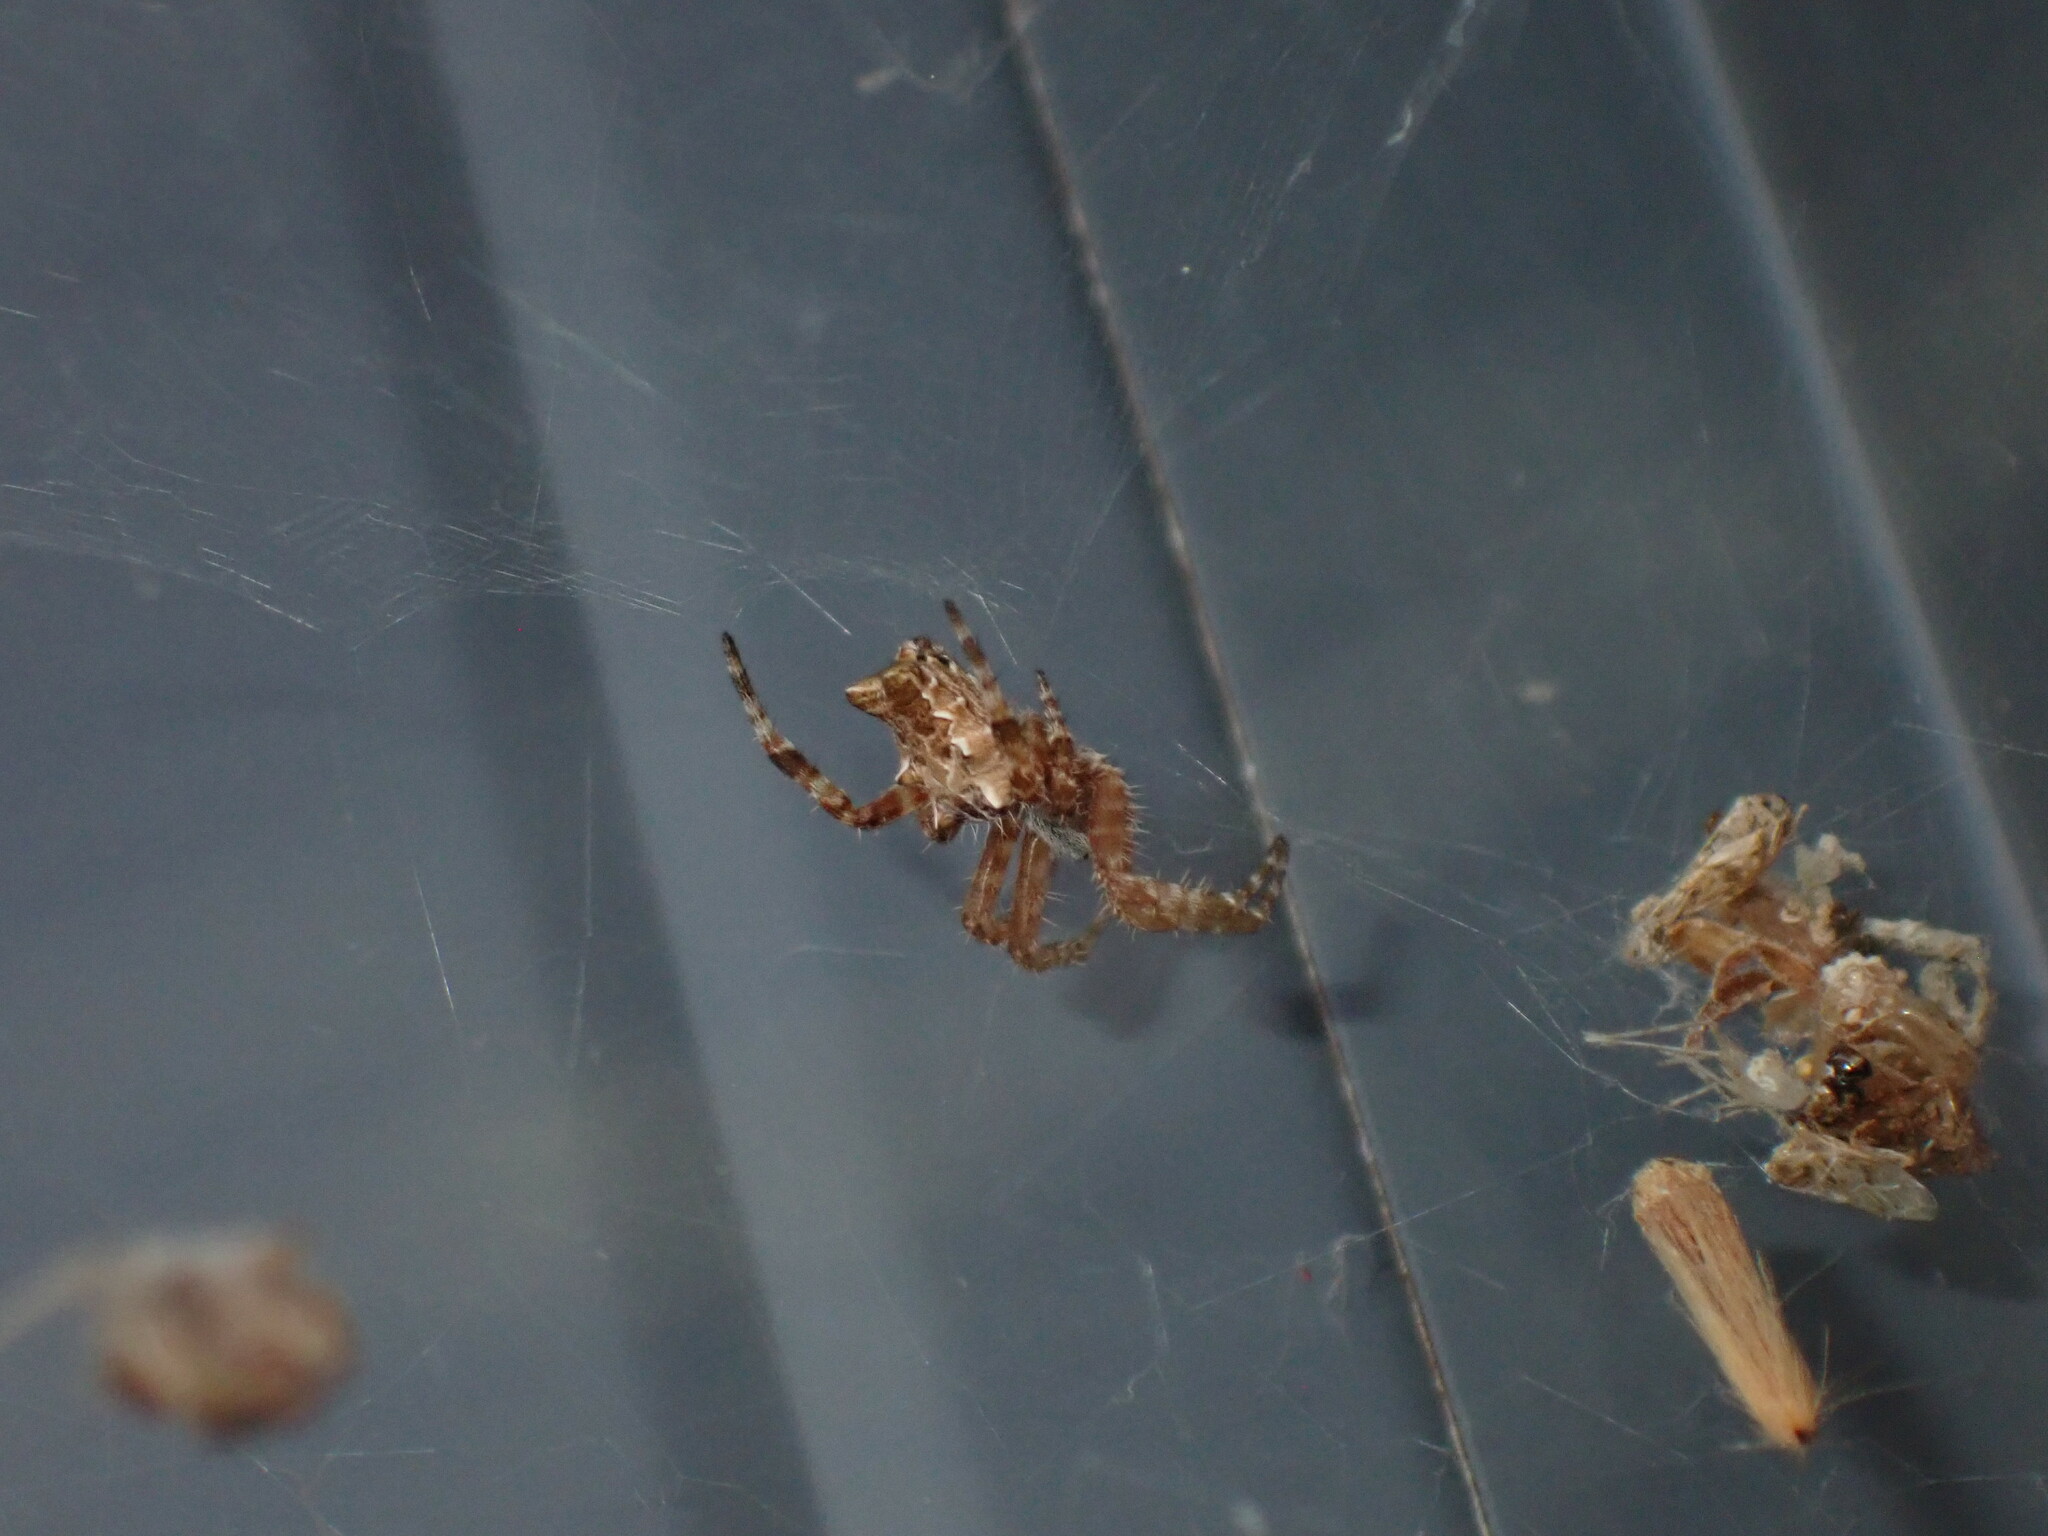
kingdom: Animalia
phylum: Arthropoda
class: Arachnida
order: Araneae
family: Araneidae
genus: Cyrtophora
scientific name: Cyrtophora citricola
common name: Orb weavers
